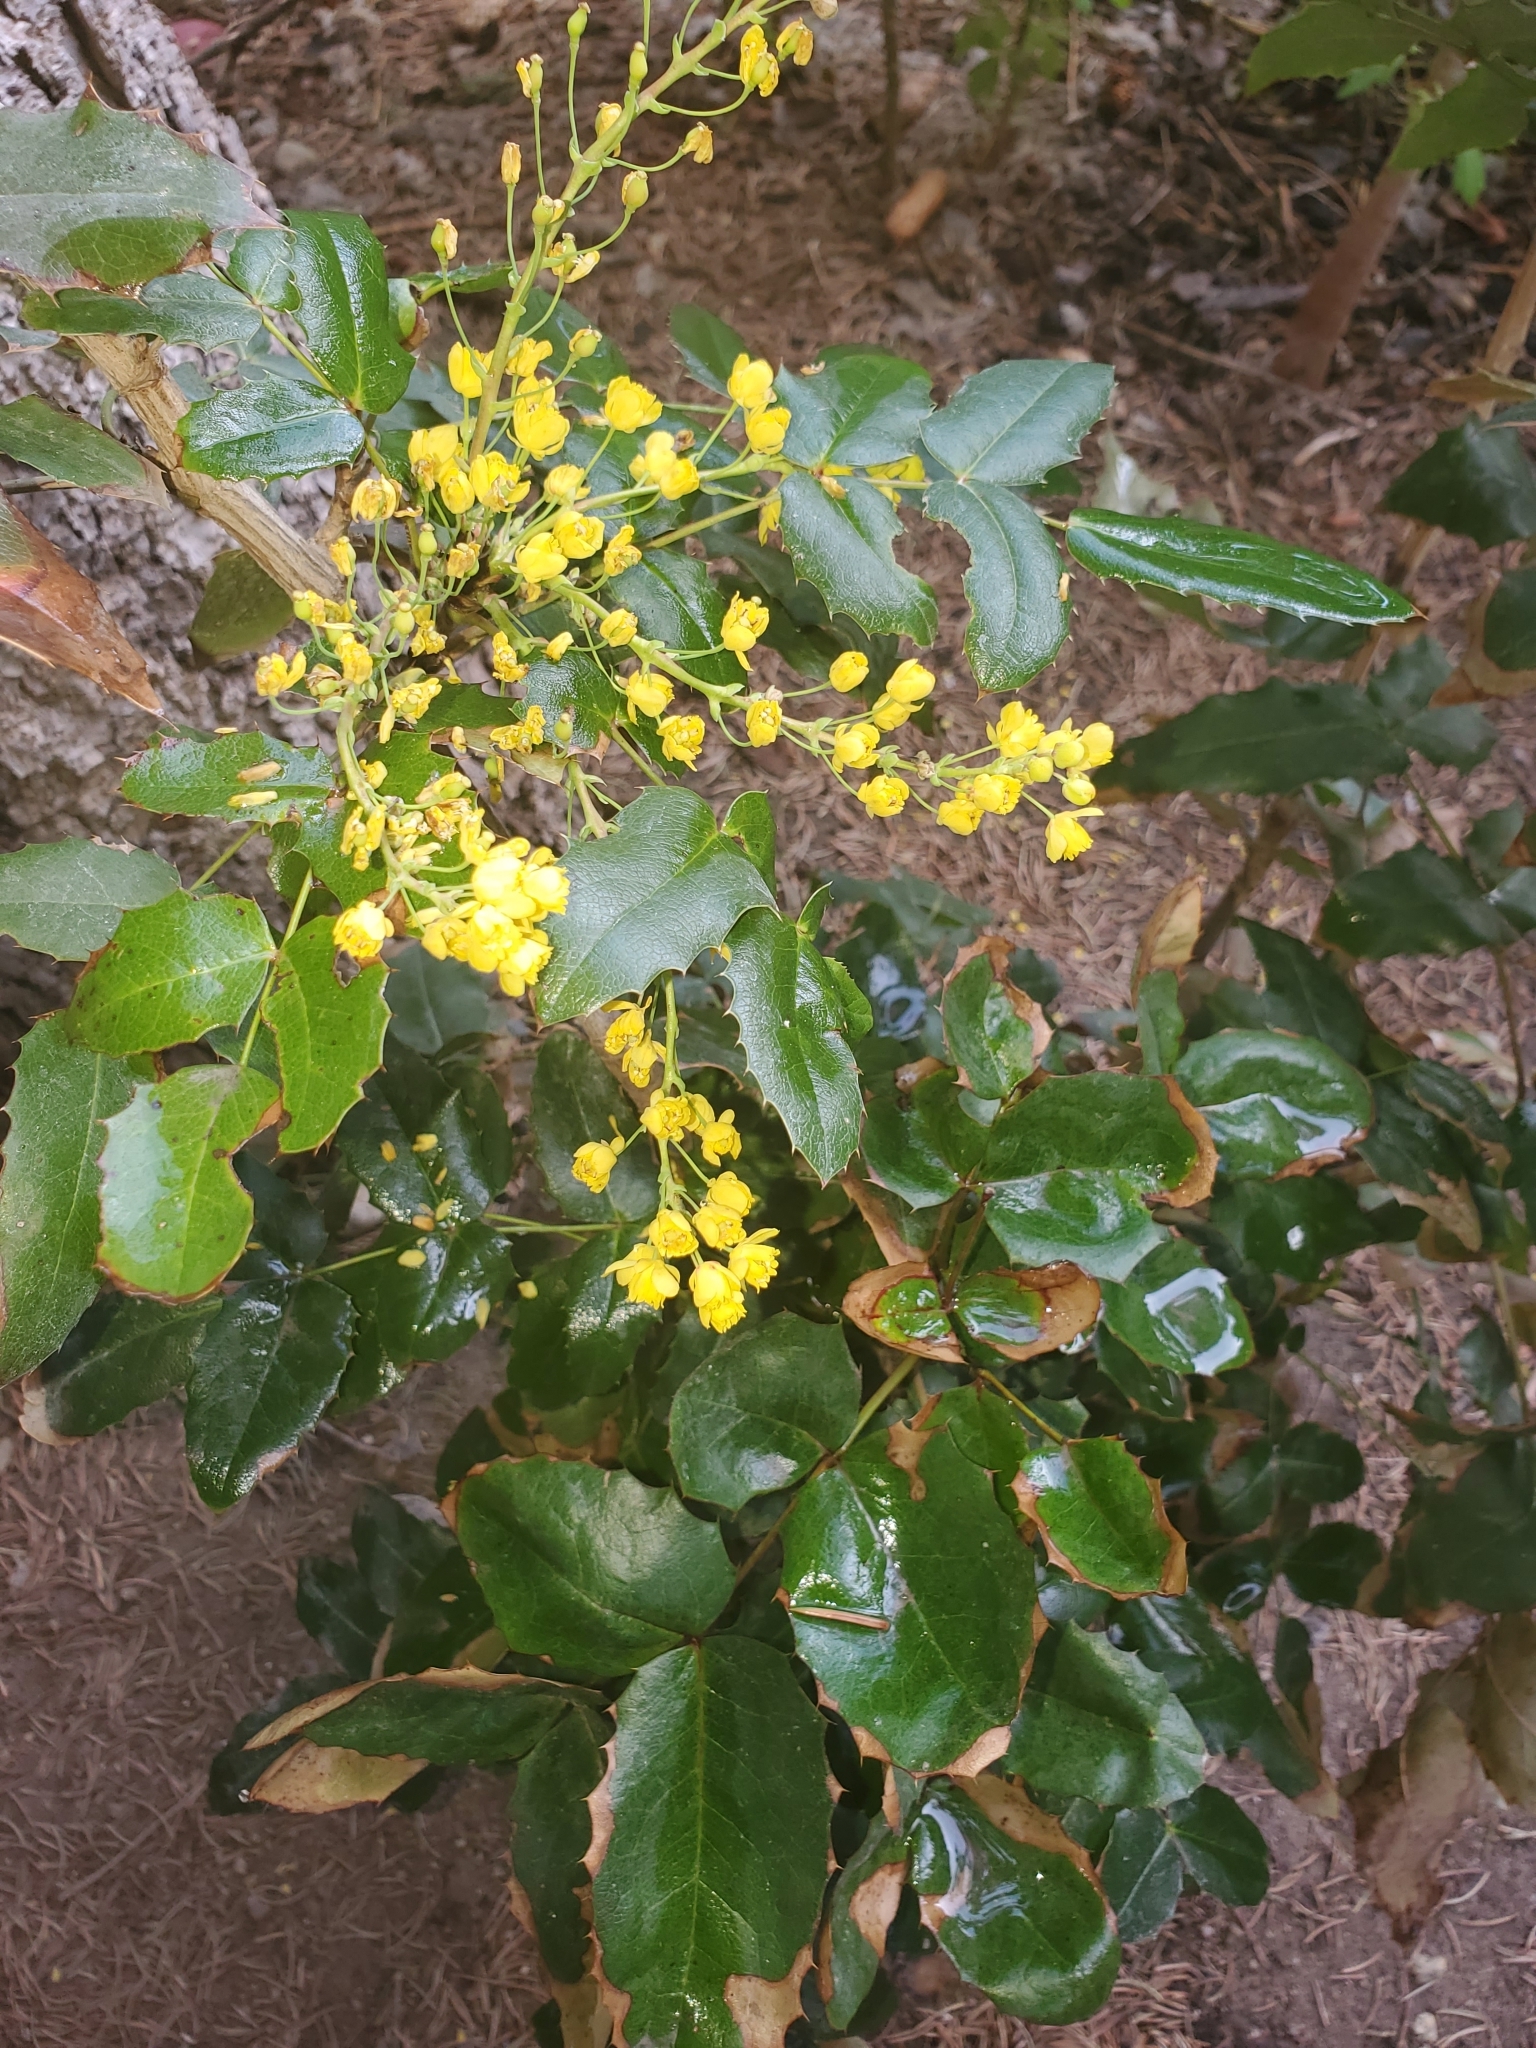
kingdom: Plantae
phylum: Tracheophyta
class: Magnoliopsida
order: Ranunculales
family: Berberidaceae
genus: Mahonia
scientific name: Mahonia aquifolium
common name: Oregon-grape
